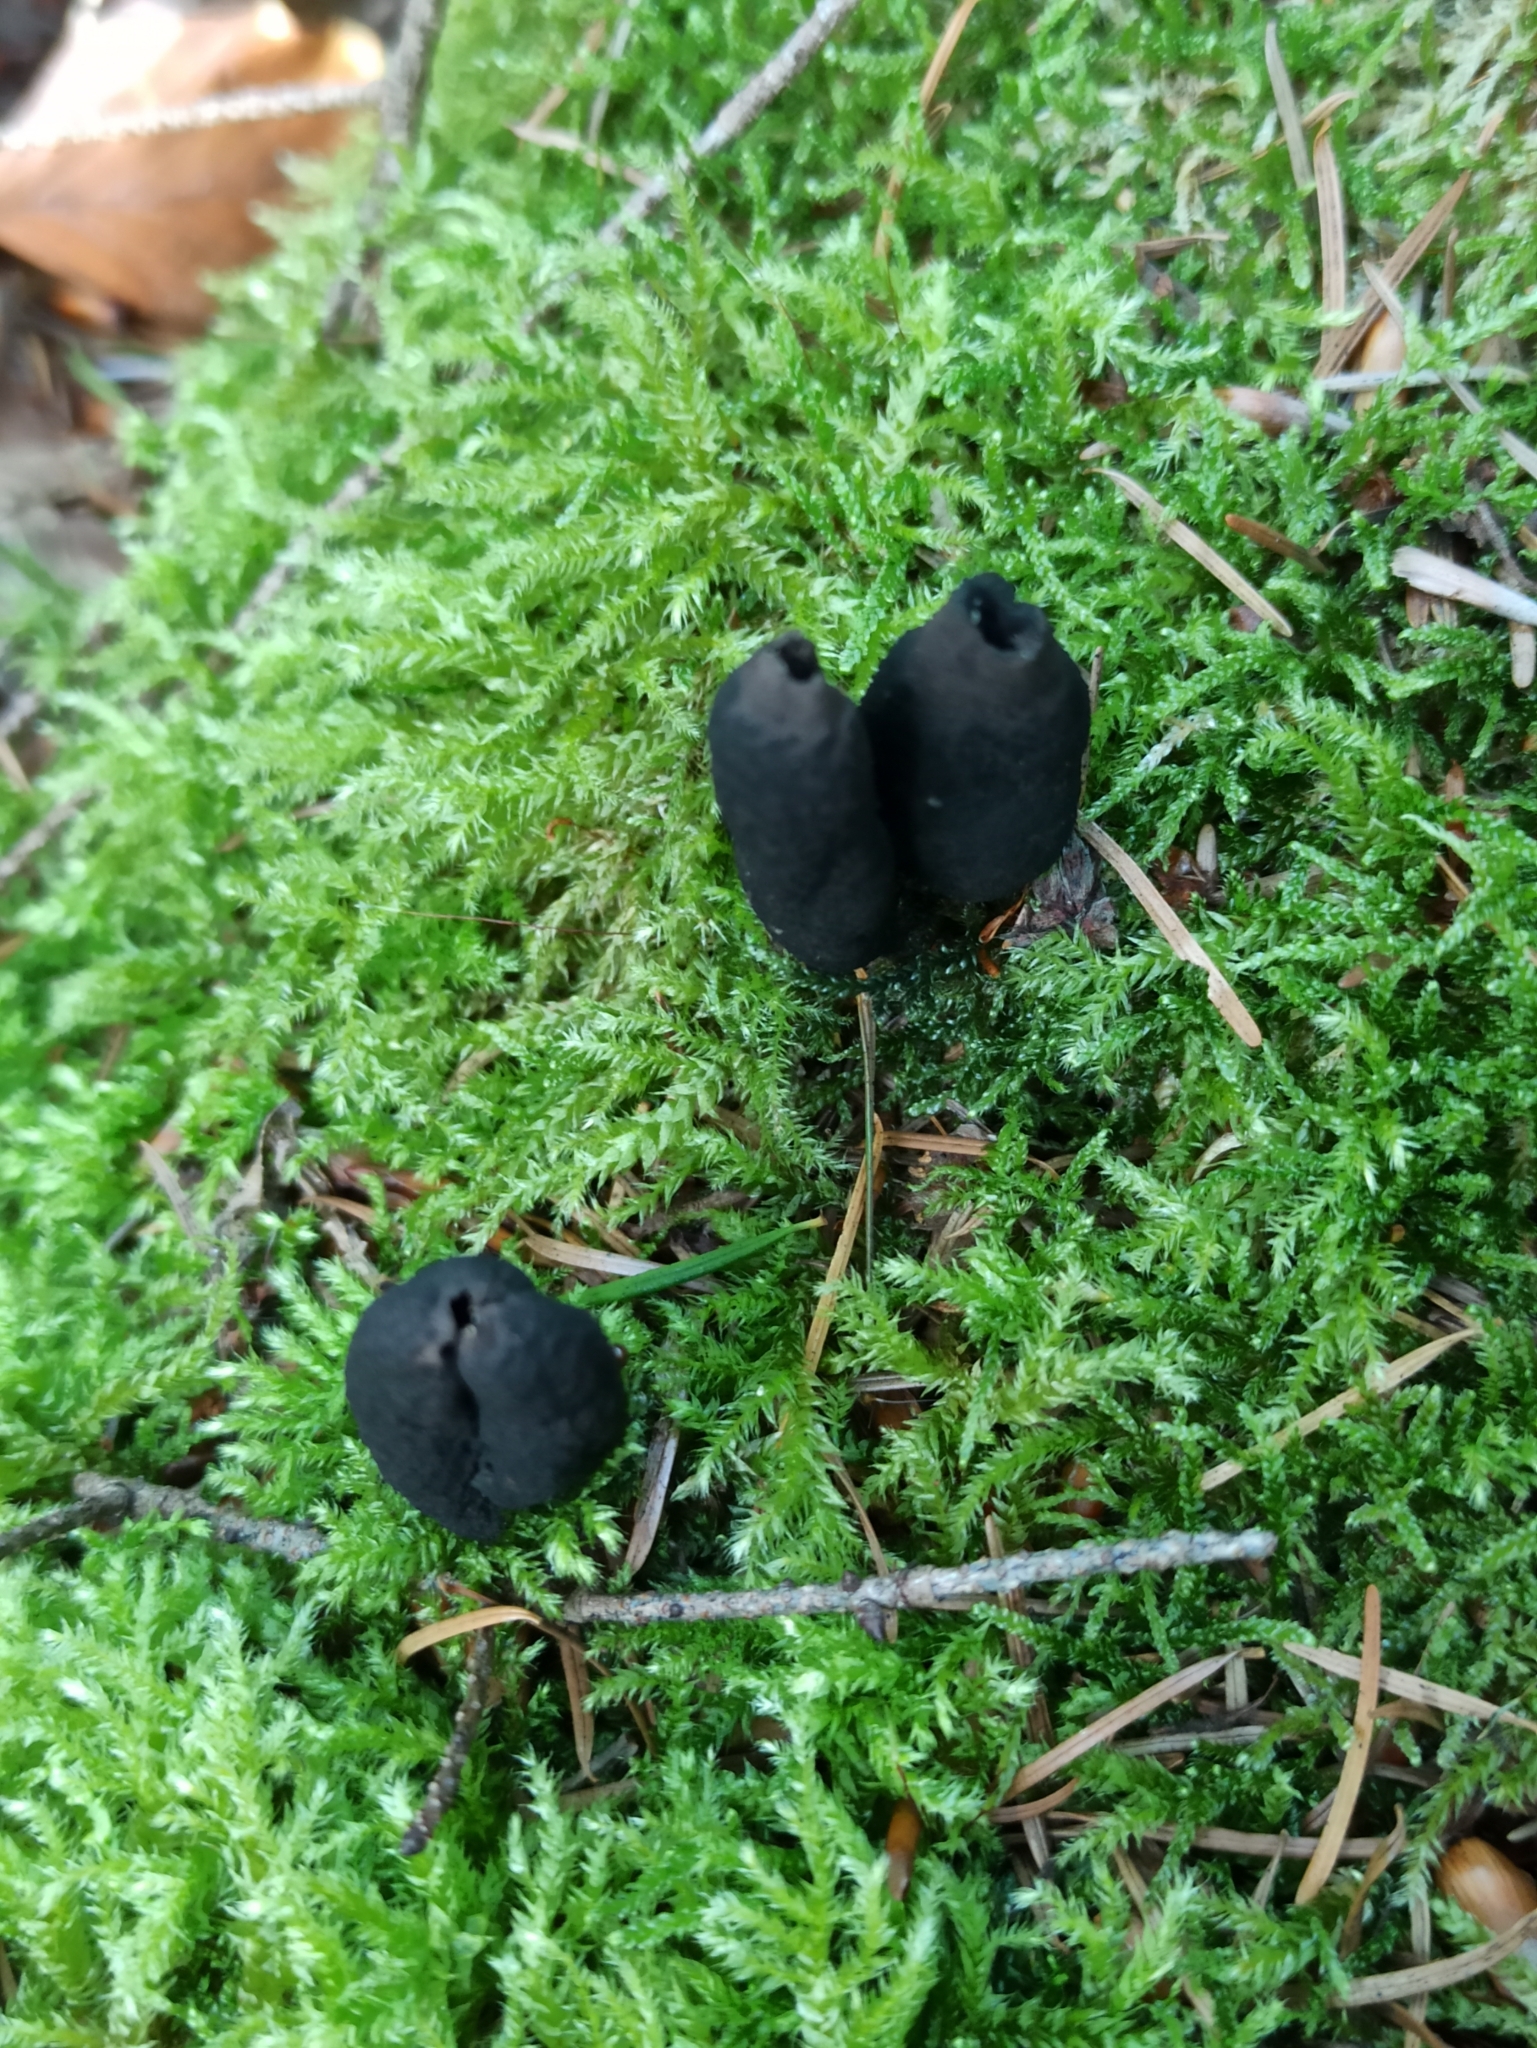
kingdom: Fungi
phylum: Ascomycota
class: Sordariomycetes
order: Xylariales
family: Xylariaceae
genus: Xylaria
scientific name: Xylaria polymorpha
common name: Dead man's fingers
